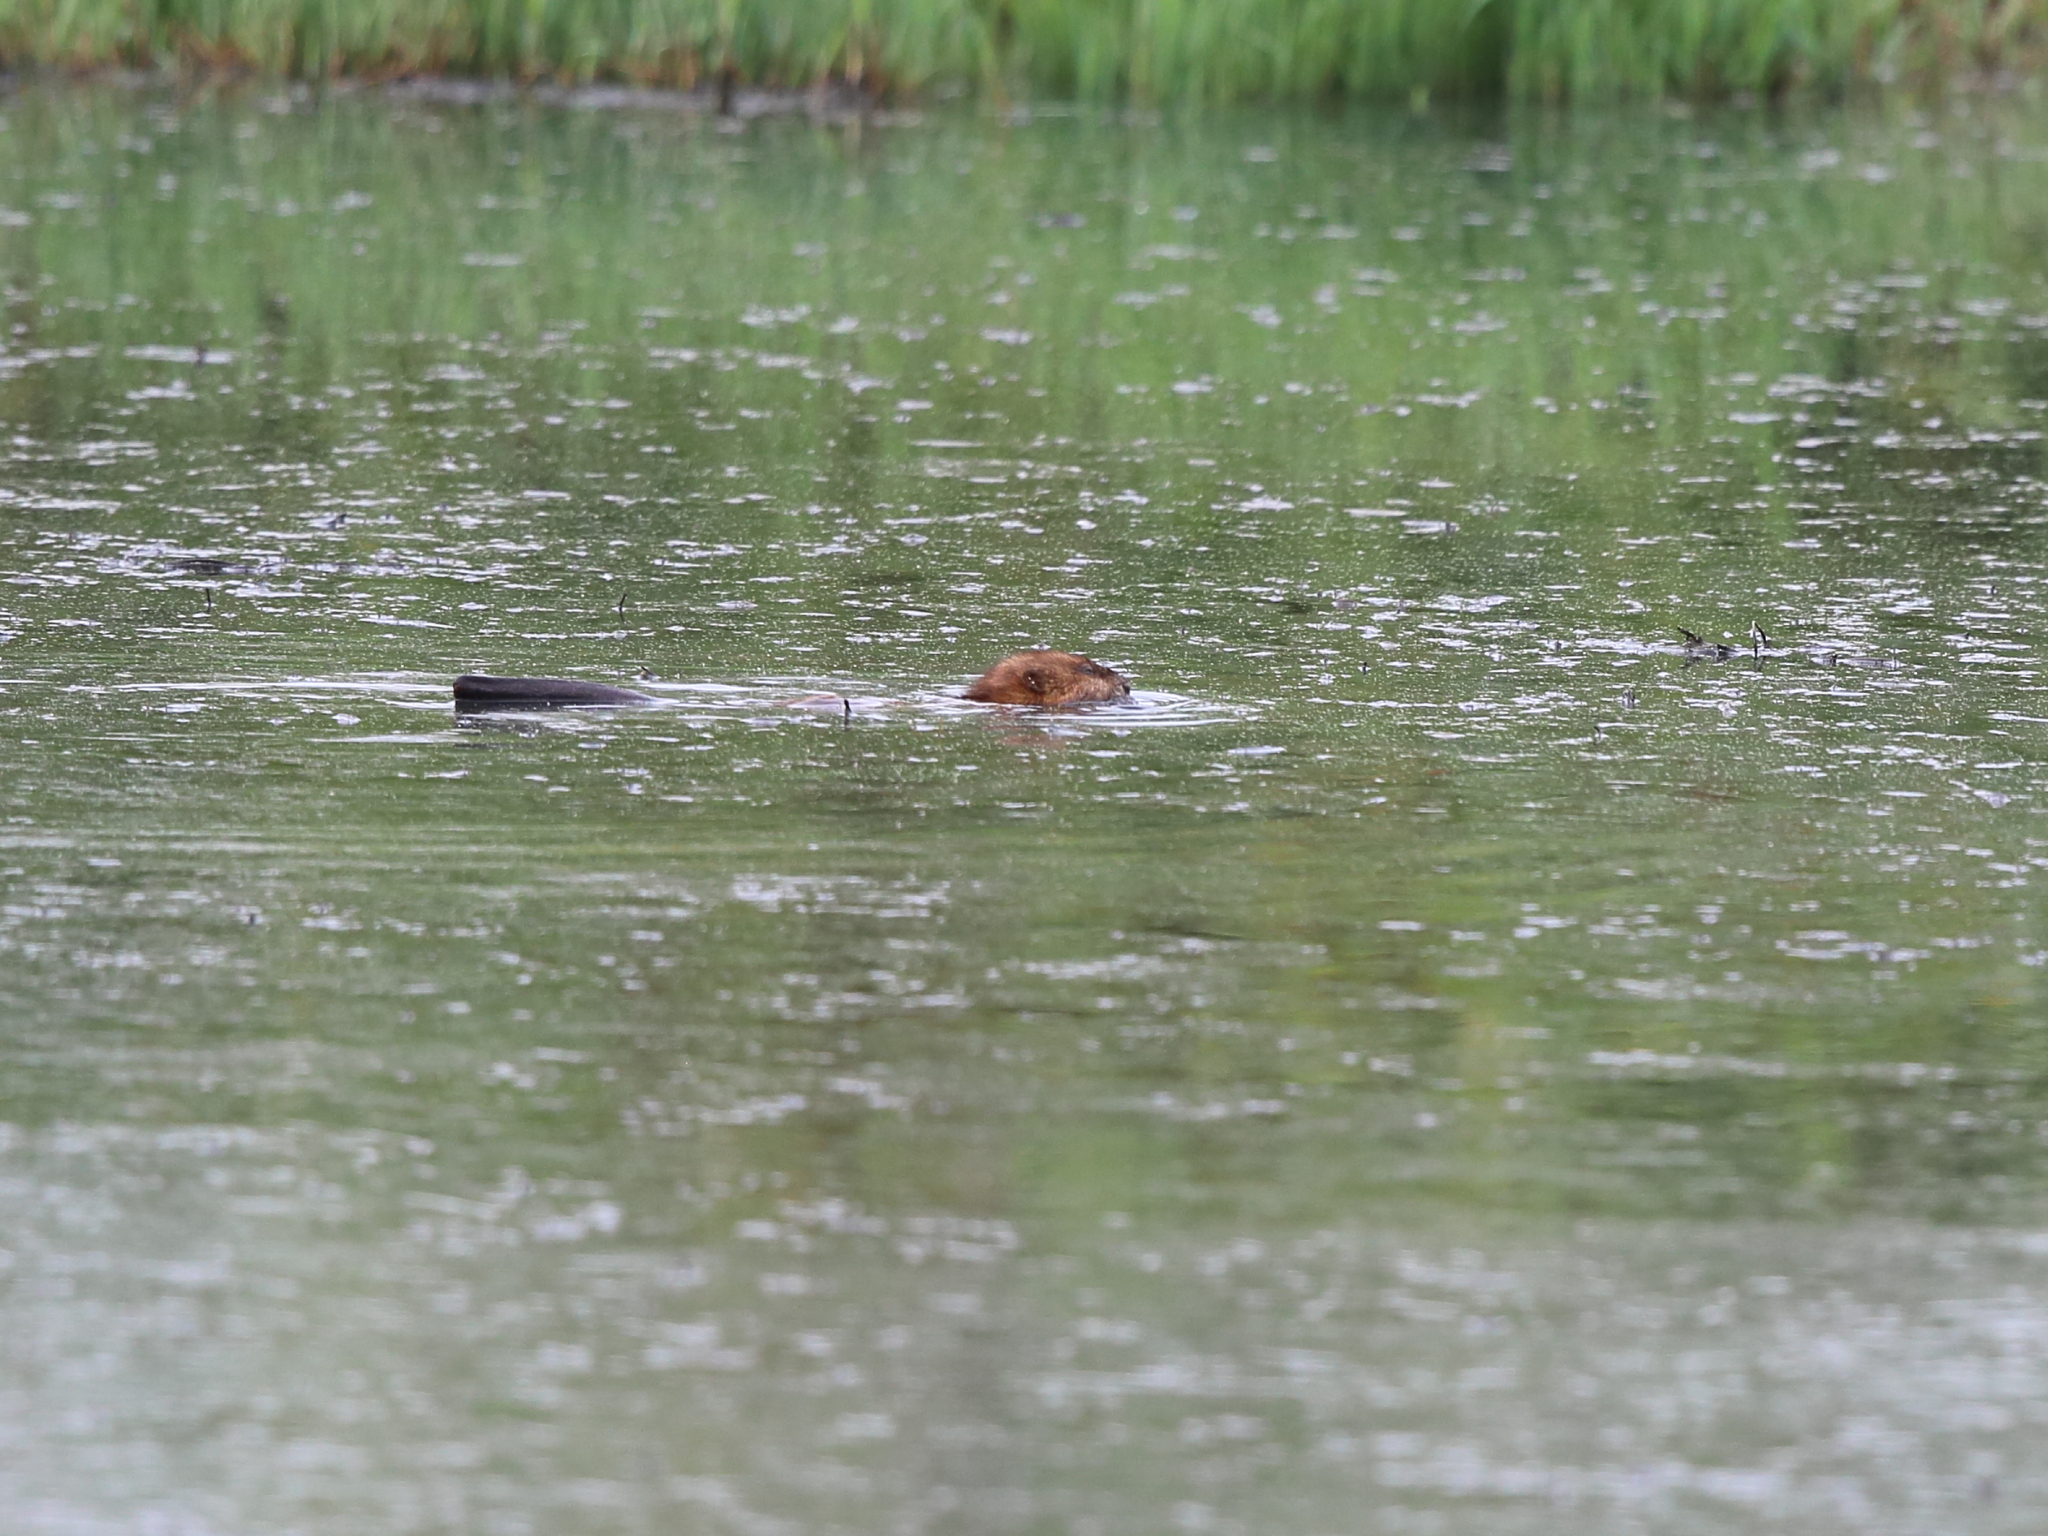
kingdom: Animalia
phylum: Chordata
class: Mammalia
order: Rodentia
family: Cricetidae
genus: Ondatra
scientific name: Ondatra zibethicus
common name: Muskrat
